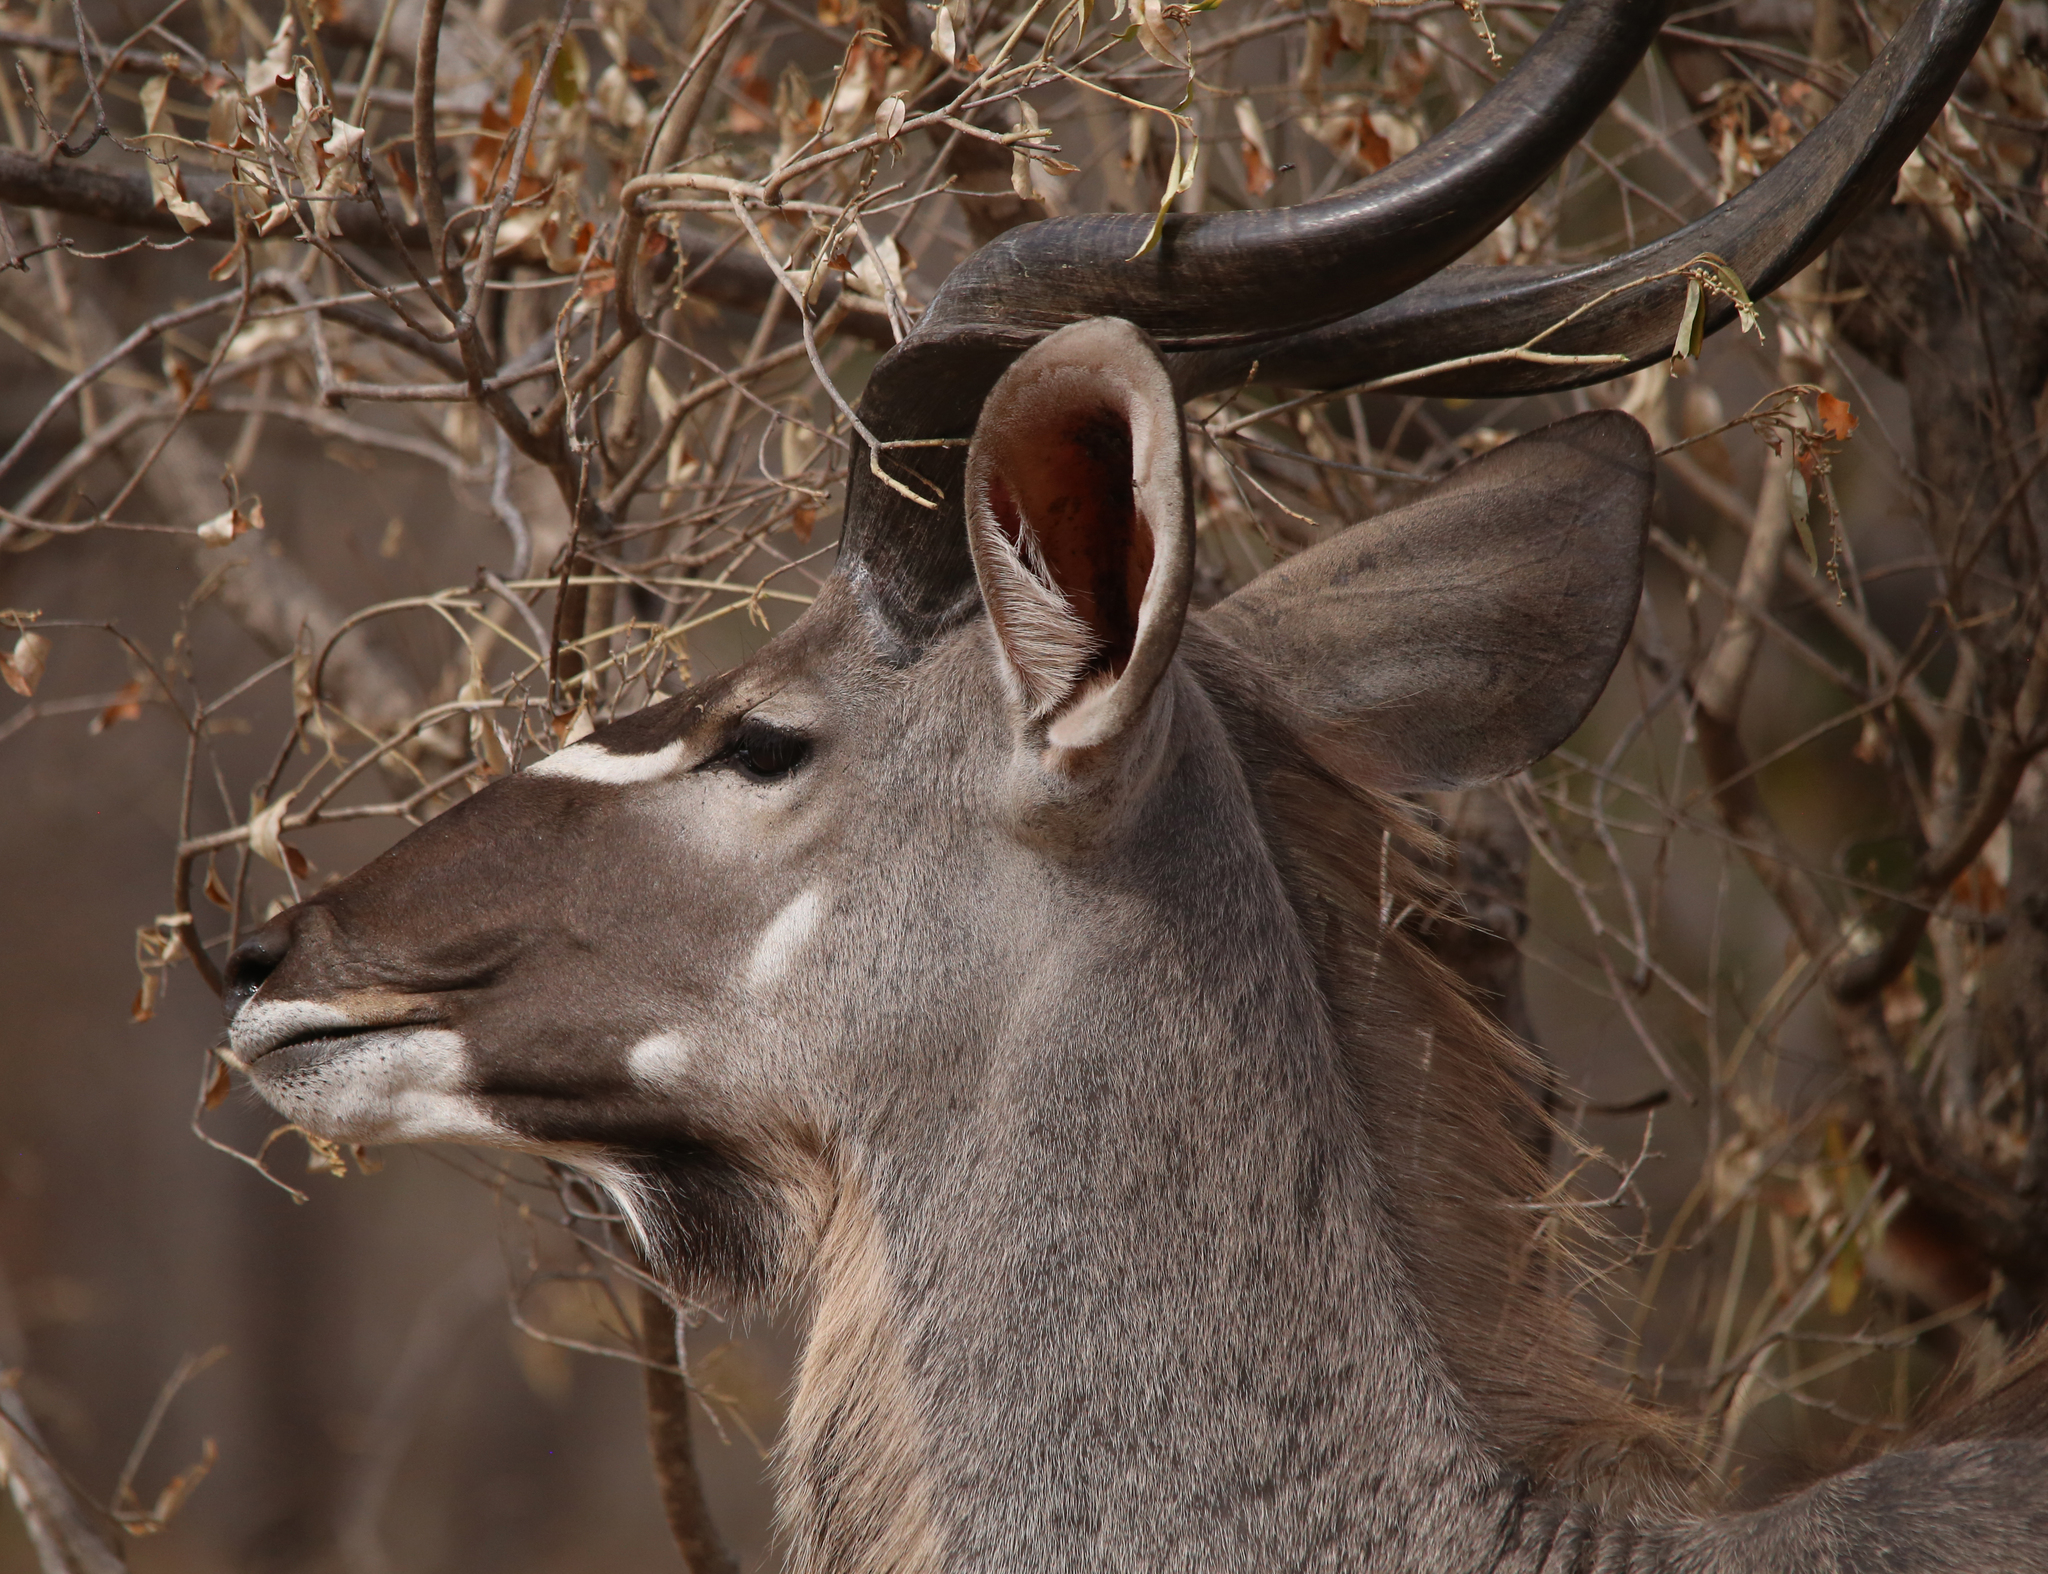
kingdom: Animalia
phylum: Chordata
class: Mammalia
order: Artiodactyla
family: Bovidae
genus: Tragelaphus
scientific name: Tragelaphus strepsiceros
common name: Greater kudu
